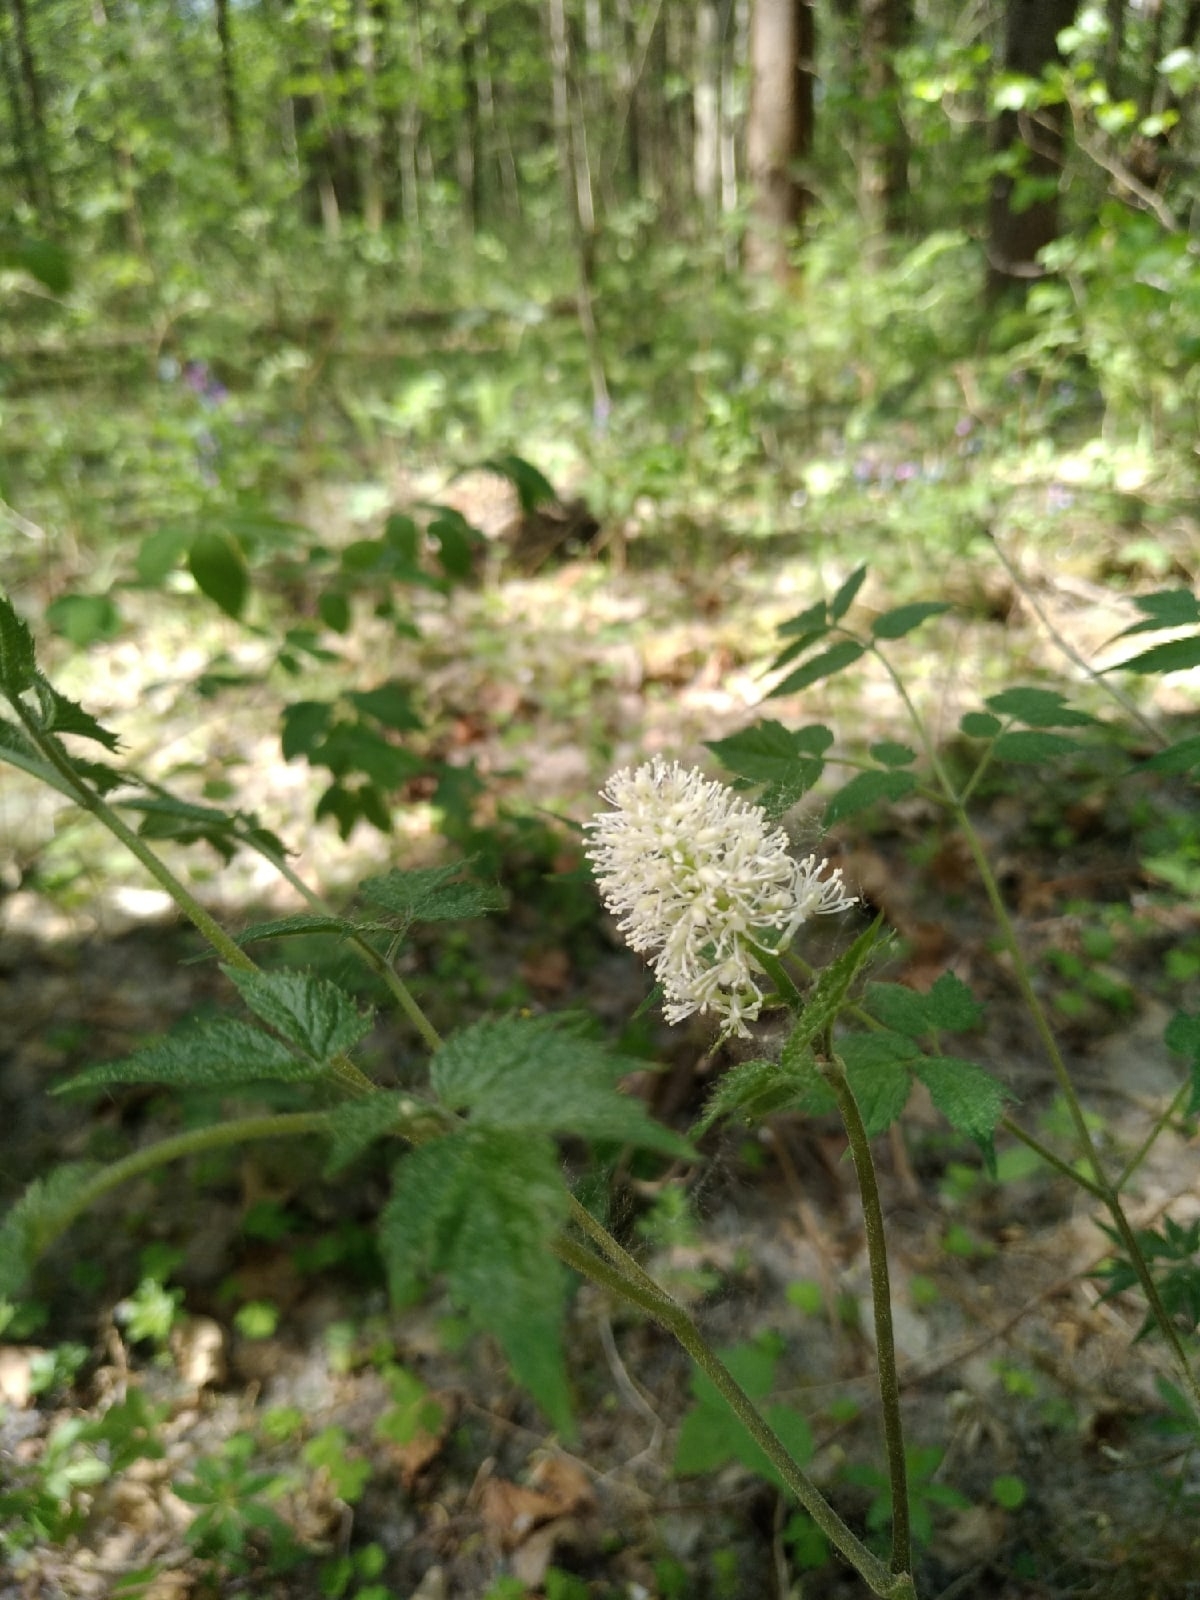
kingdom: Plantae
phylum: Tracheophyta
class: Magnoliopsida
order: Ranunculales
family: Ranunculaceae
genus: Actaea
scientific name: Actaea spicata
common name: Baneberry
